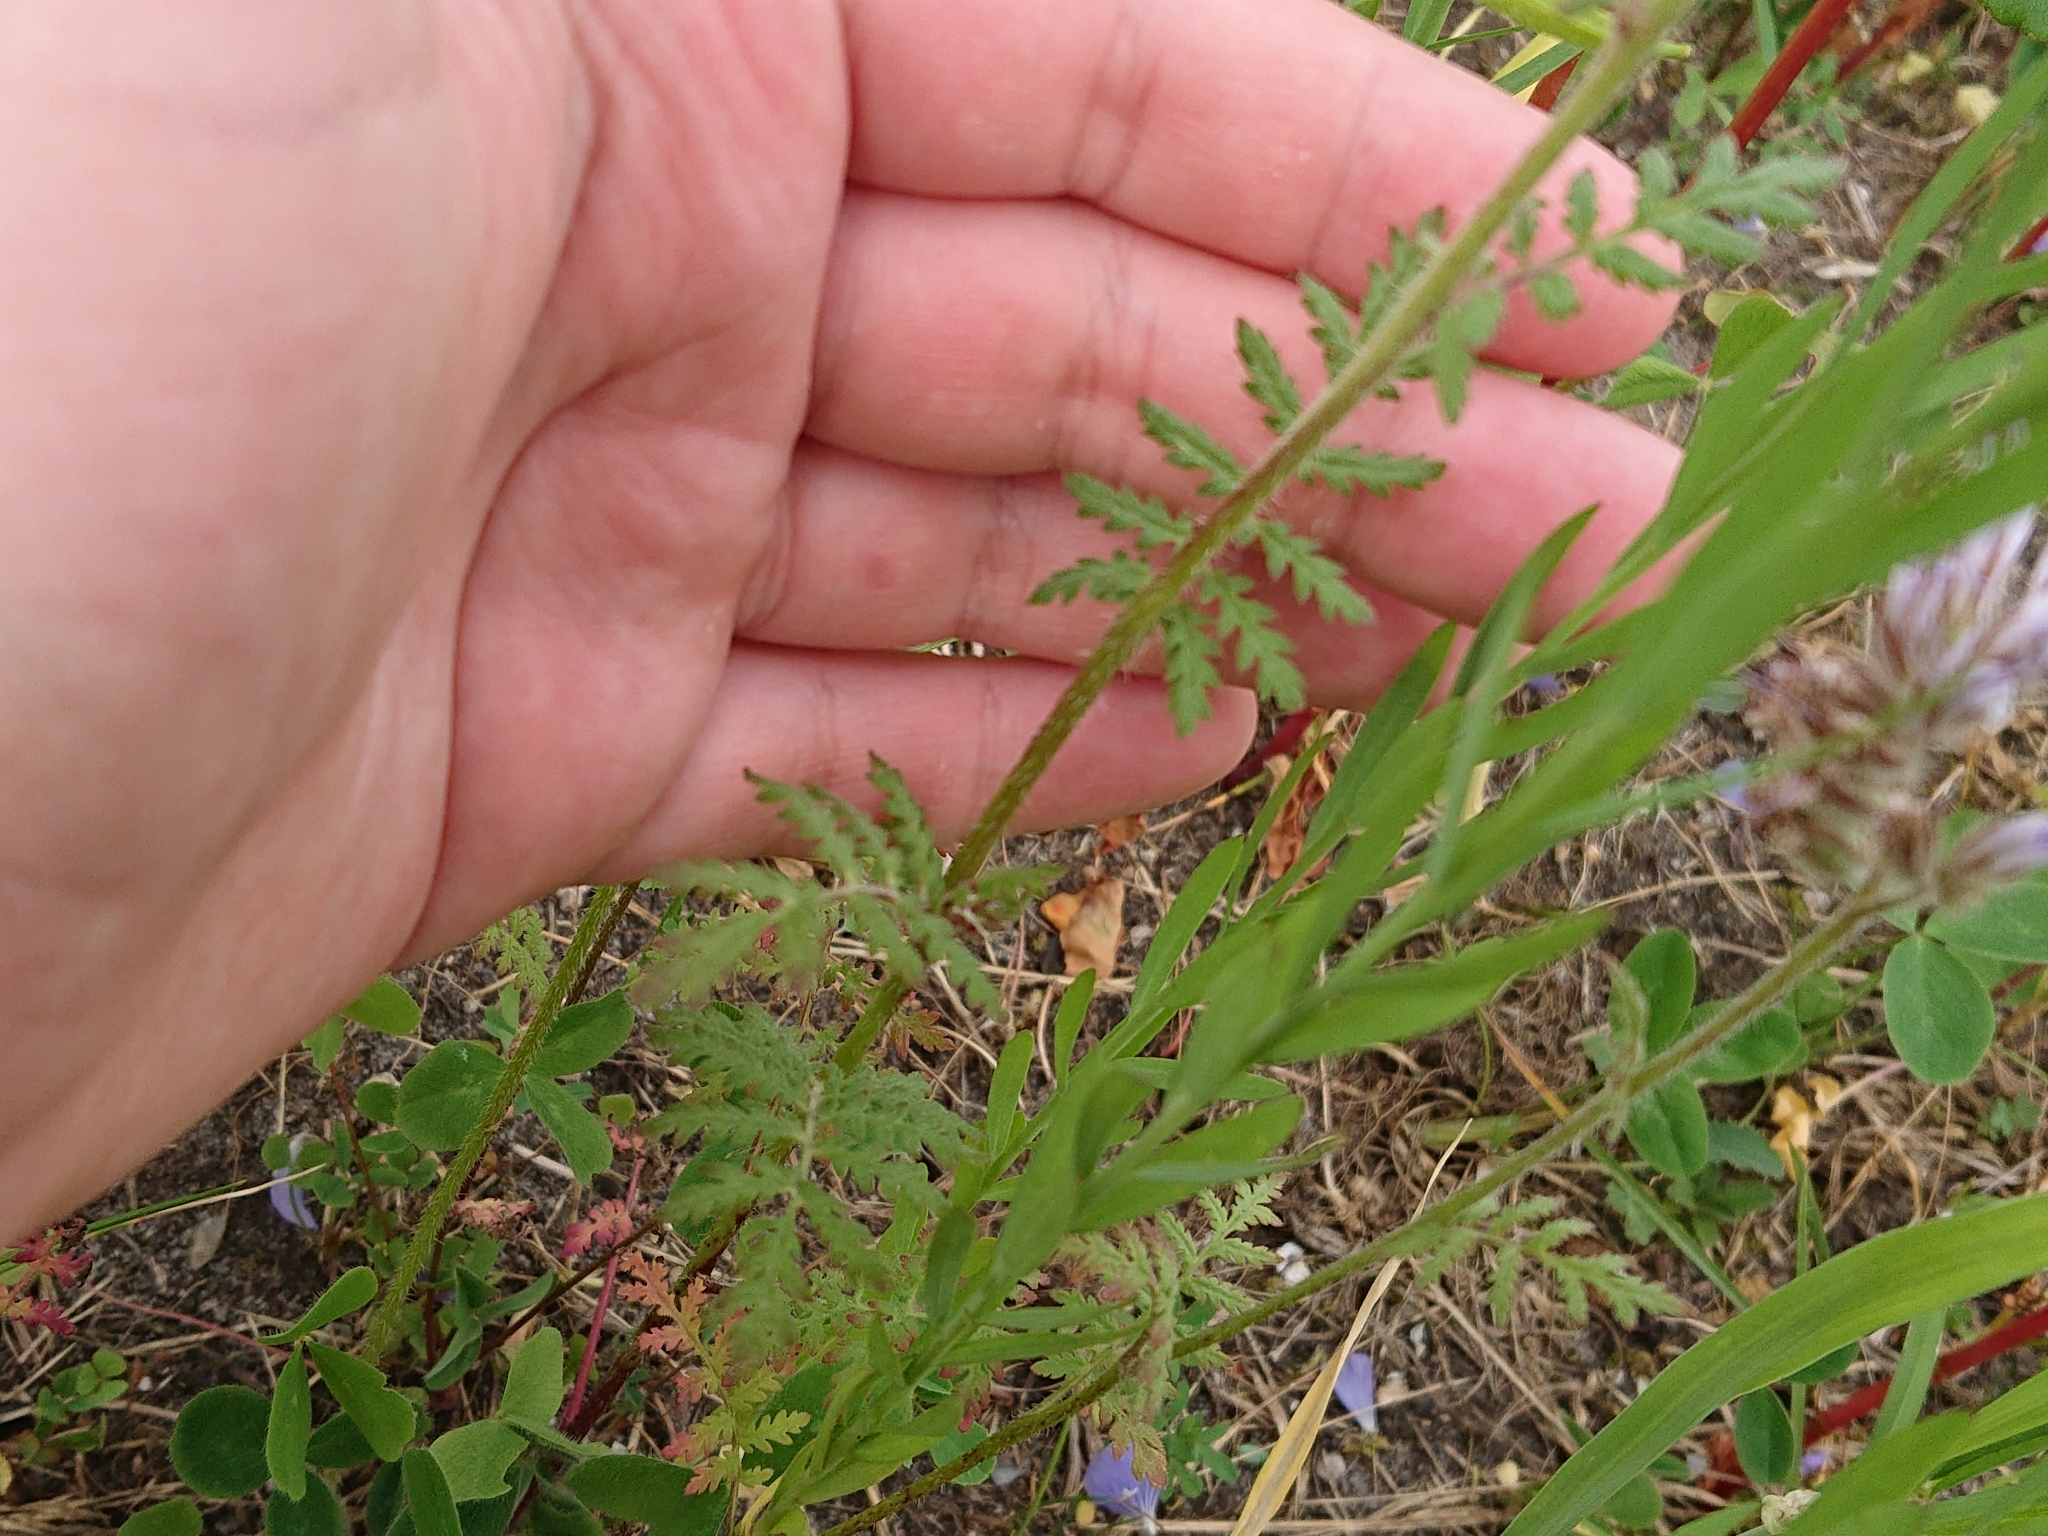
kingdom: Plantae
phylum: Tracheophyta
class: Magnoliopsida
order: Boraginales
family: Hydrophyllaceae
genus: Phacelia
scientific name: Phacelia tanacetifolia
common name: Phacelia
